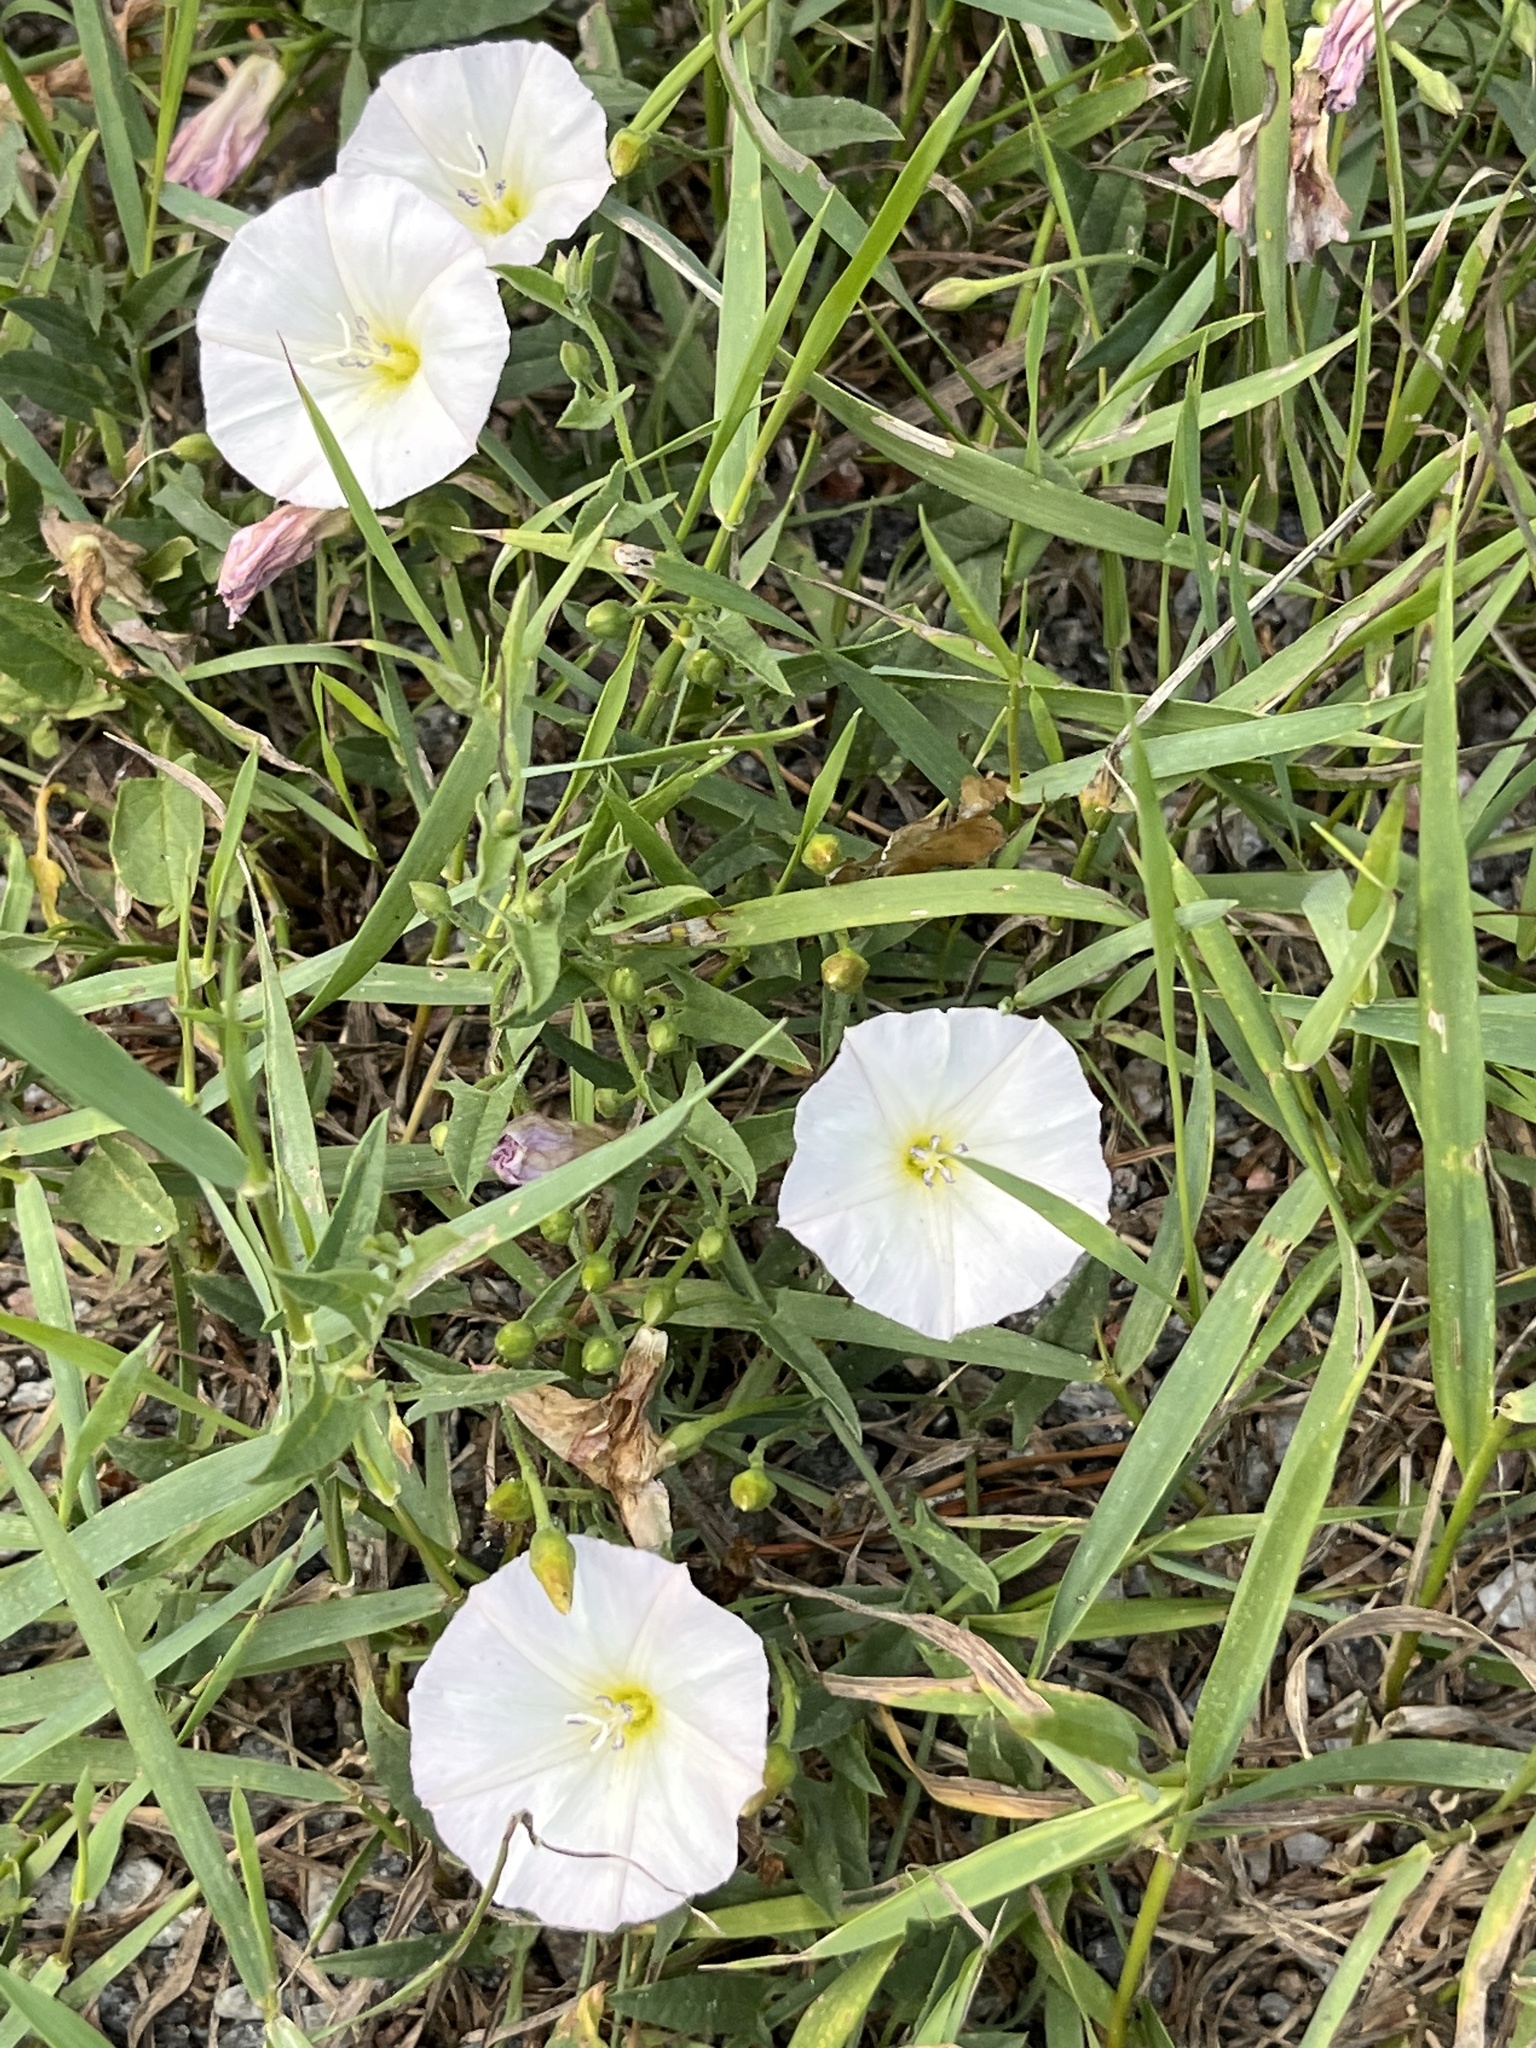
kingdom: Plantae
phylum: Tracheophyta
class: Magnoliopsida
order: Solanales
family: Convolvulaceae
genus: Convolvulus
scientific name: Convolvulus arvensis
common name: Field bindweed
